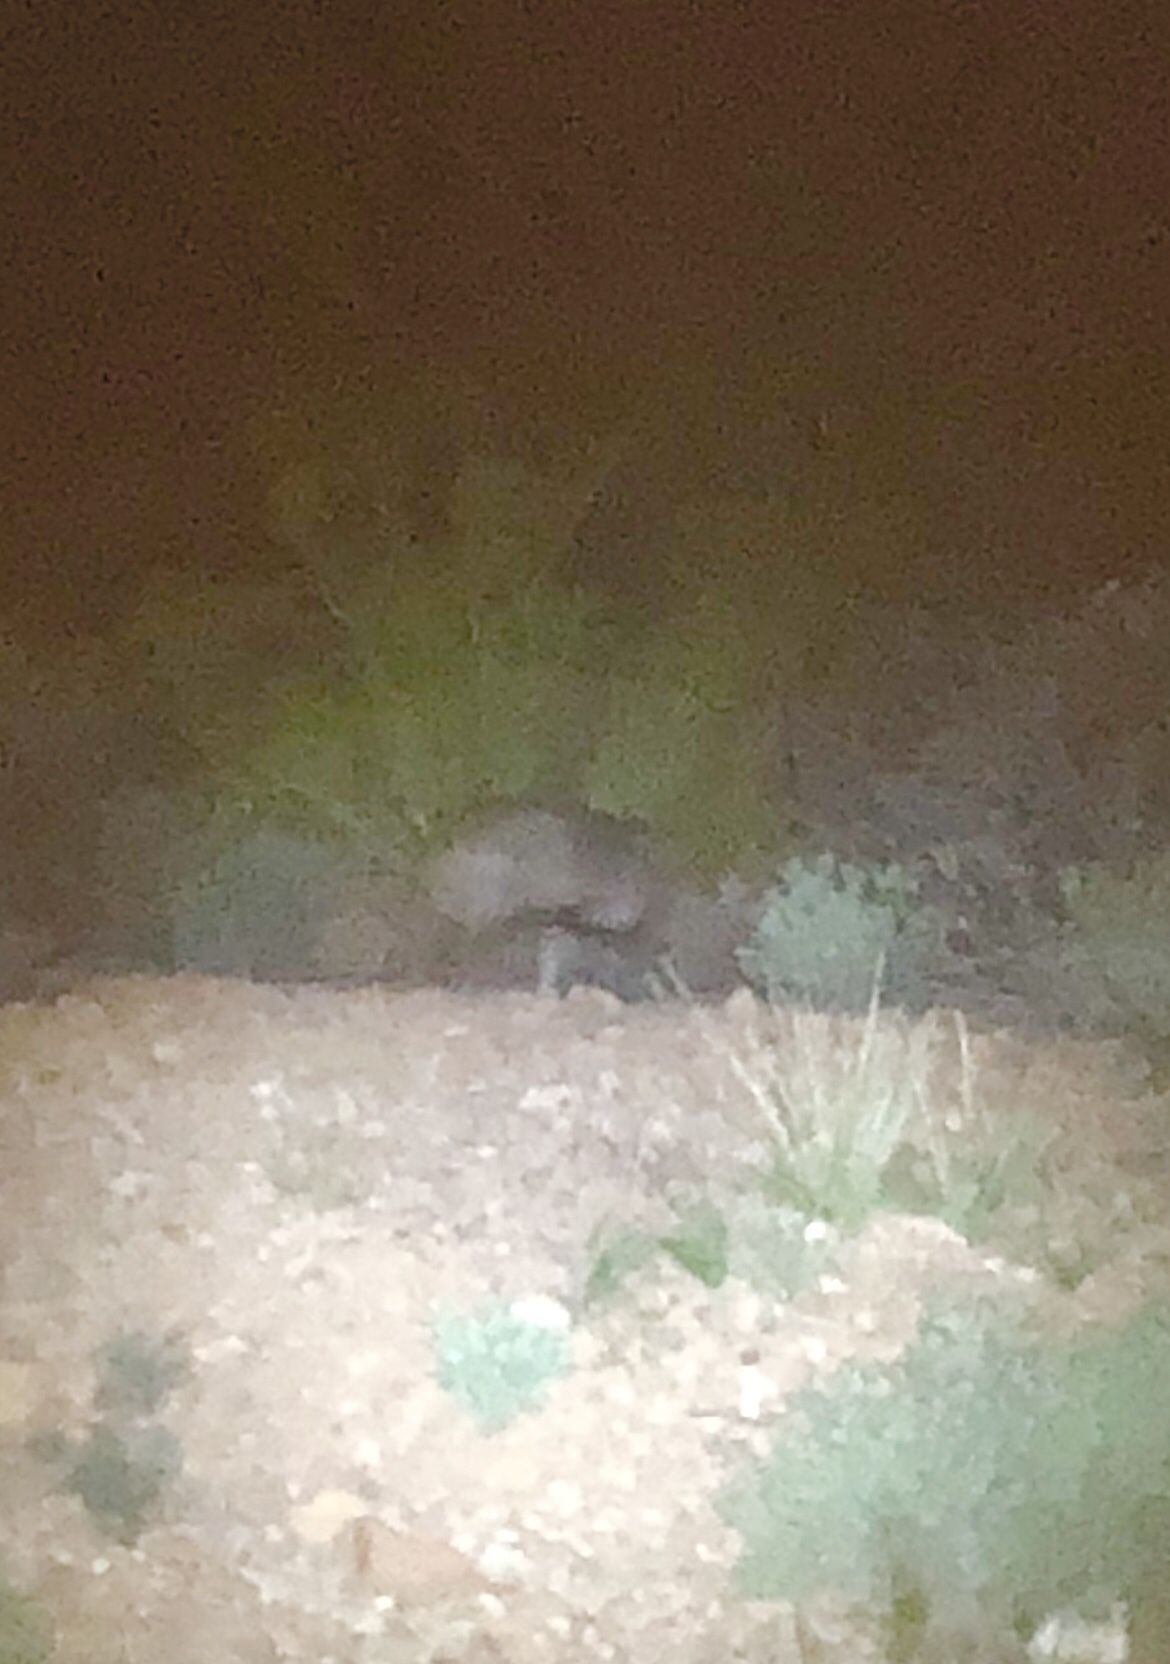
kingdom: Animalia
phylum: Chordata
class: Mammalia
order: Artiodactyla
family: Tayassuidae
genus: Pecari
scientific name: Pecari tajacu
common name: Collared peccary
